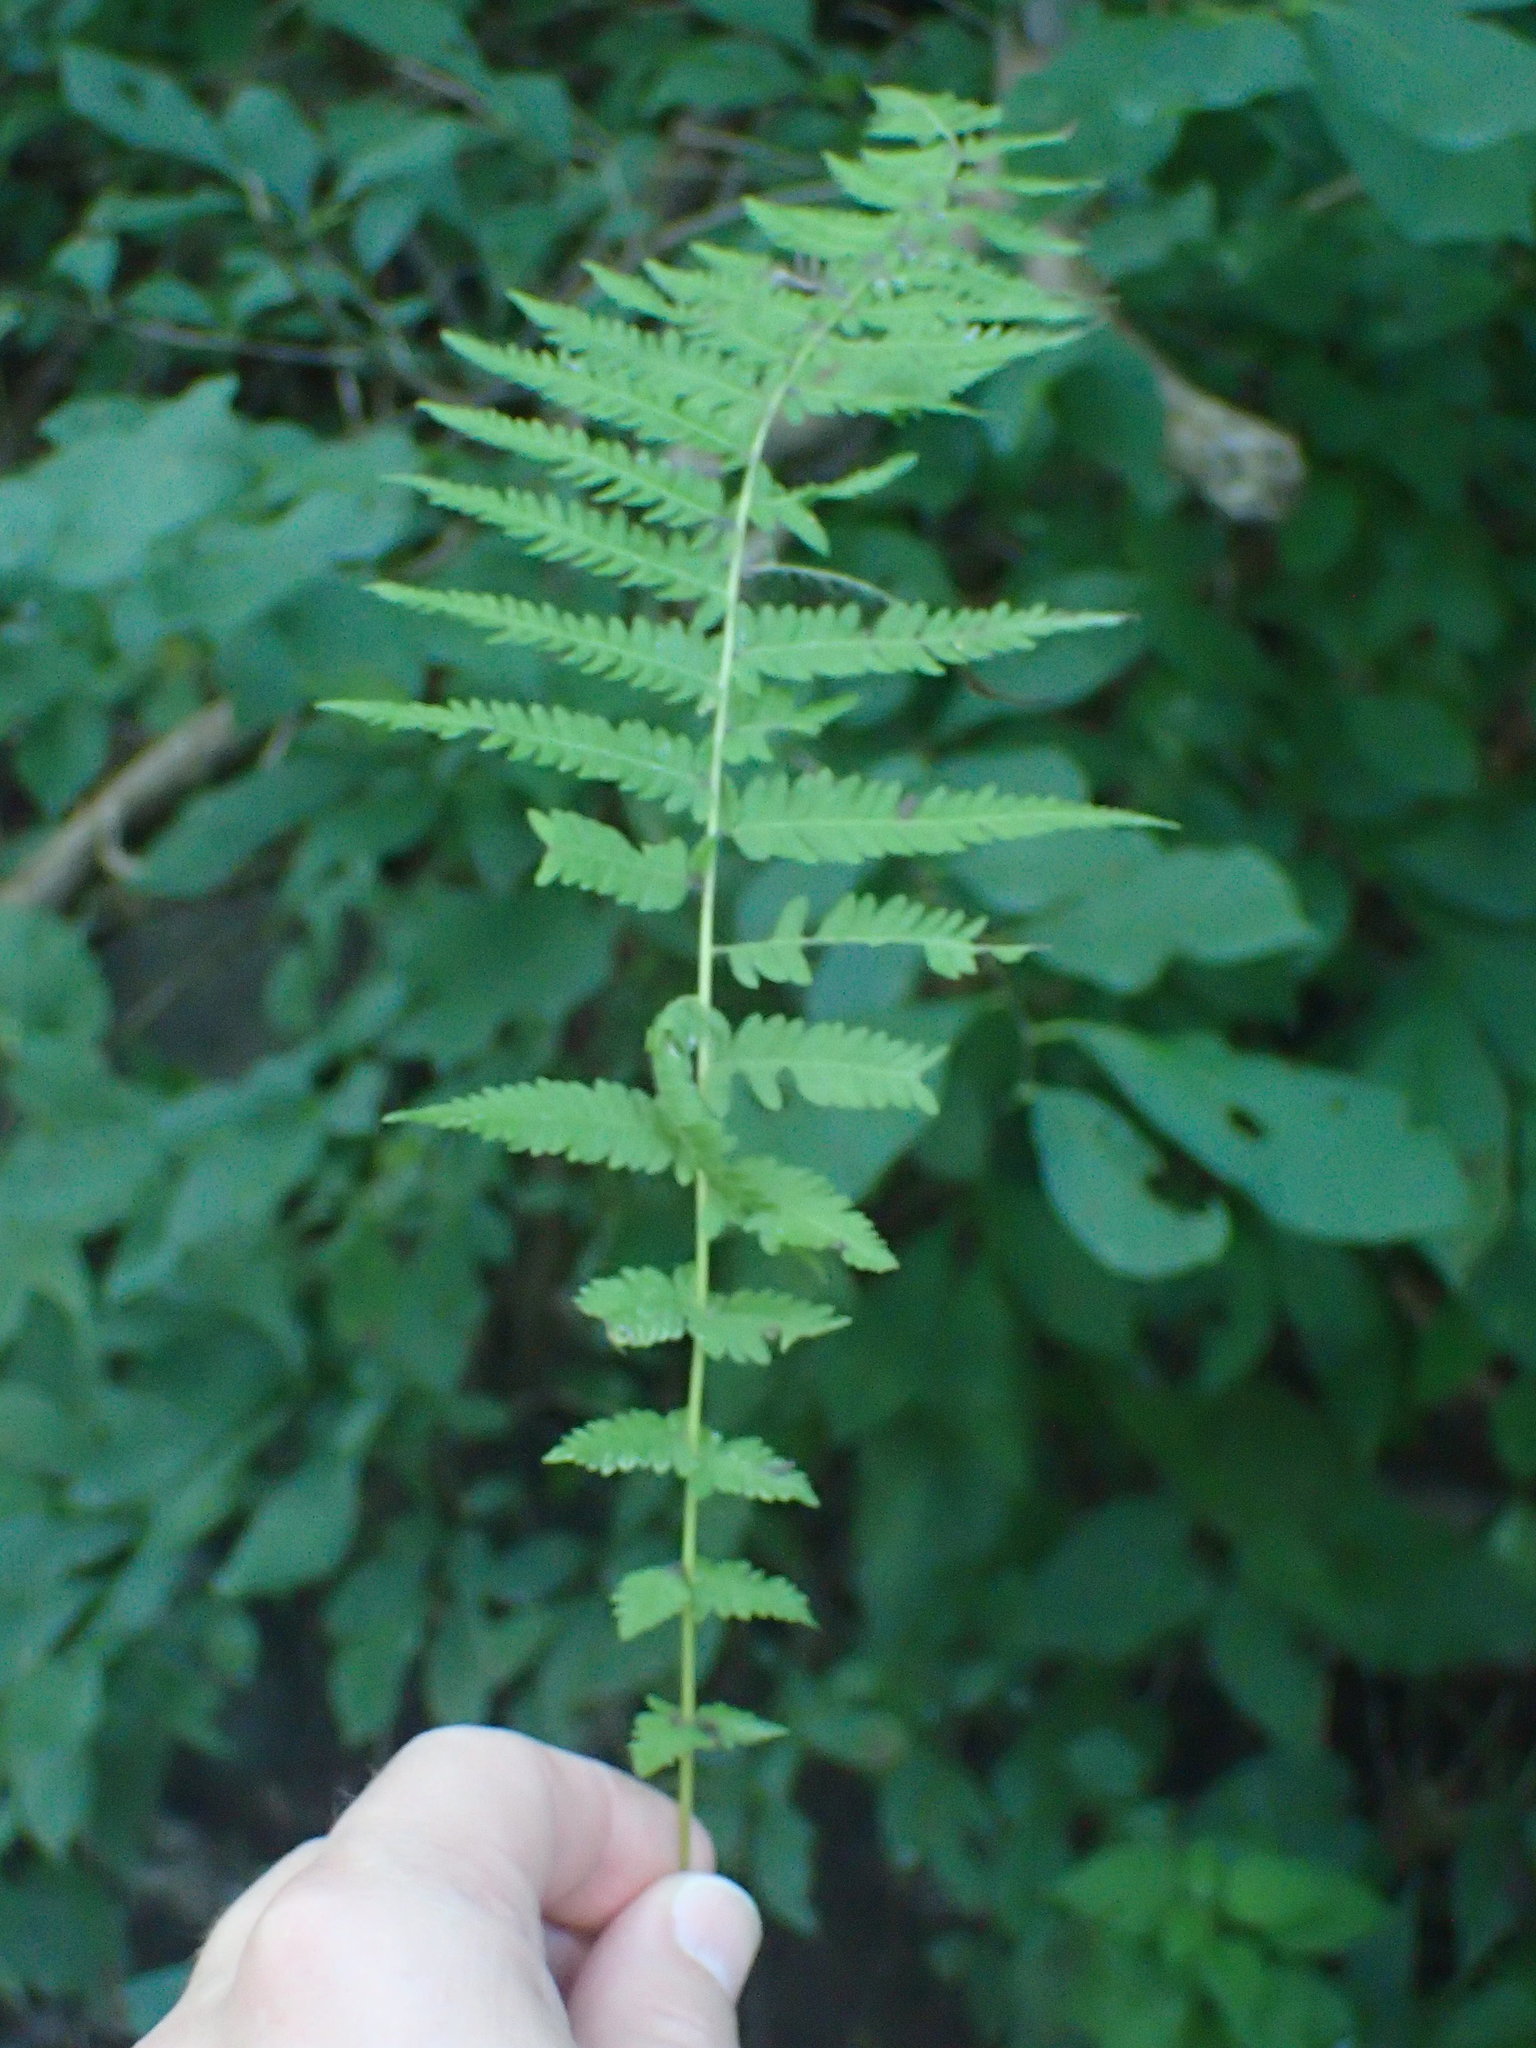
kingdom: Plantae
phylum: Tracheophyta
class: Polypodiopsida
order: Polypodiales
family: Thelypteridaceae
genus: Amauropelta
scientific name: Amauropelta noveboracensis
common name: New york fern
